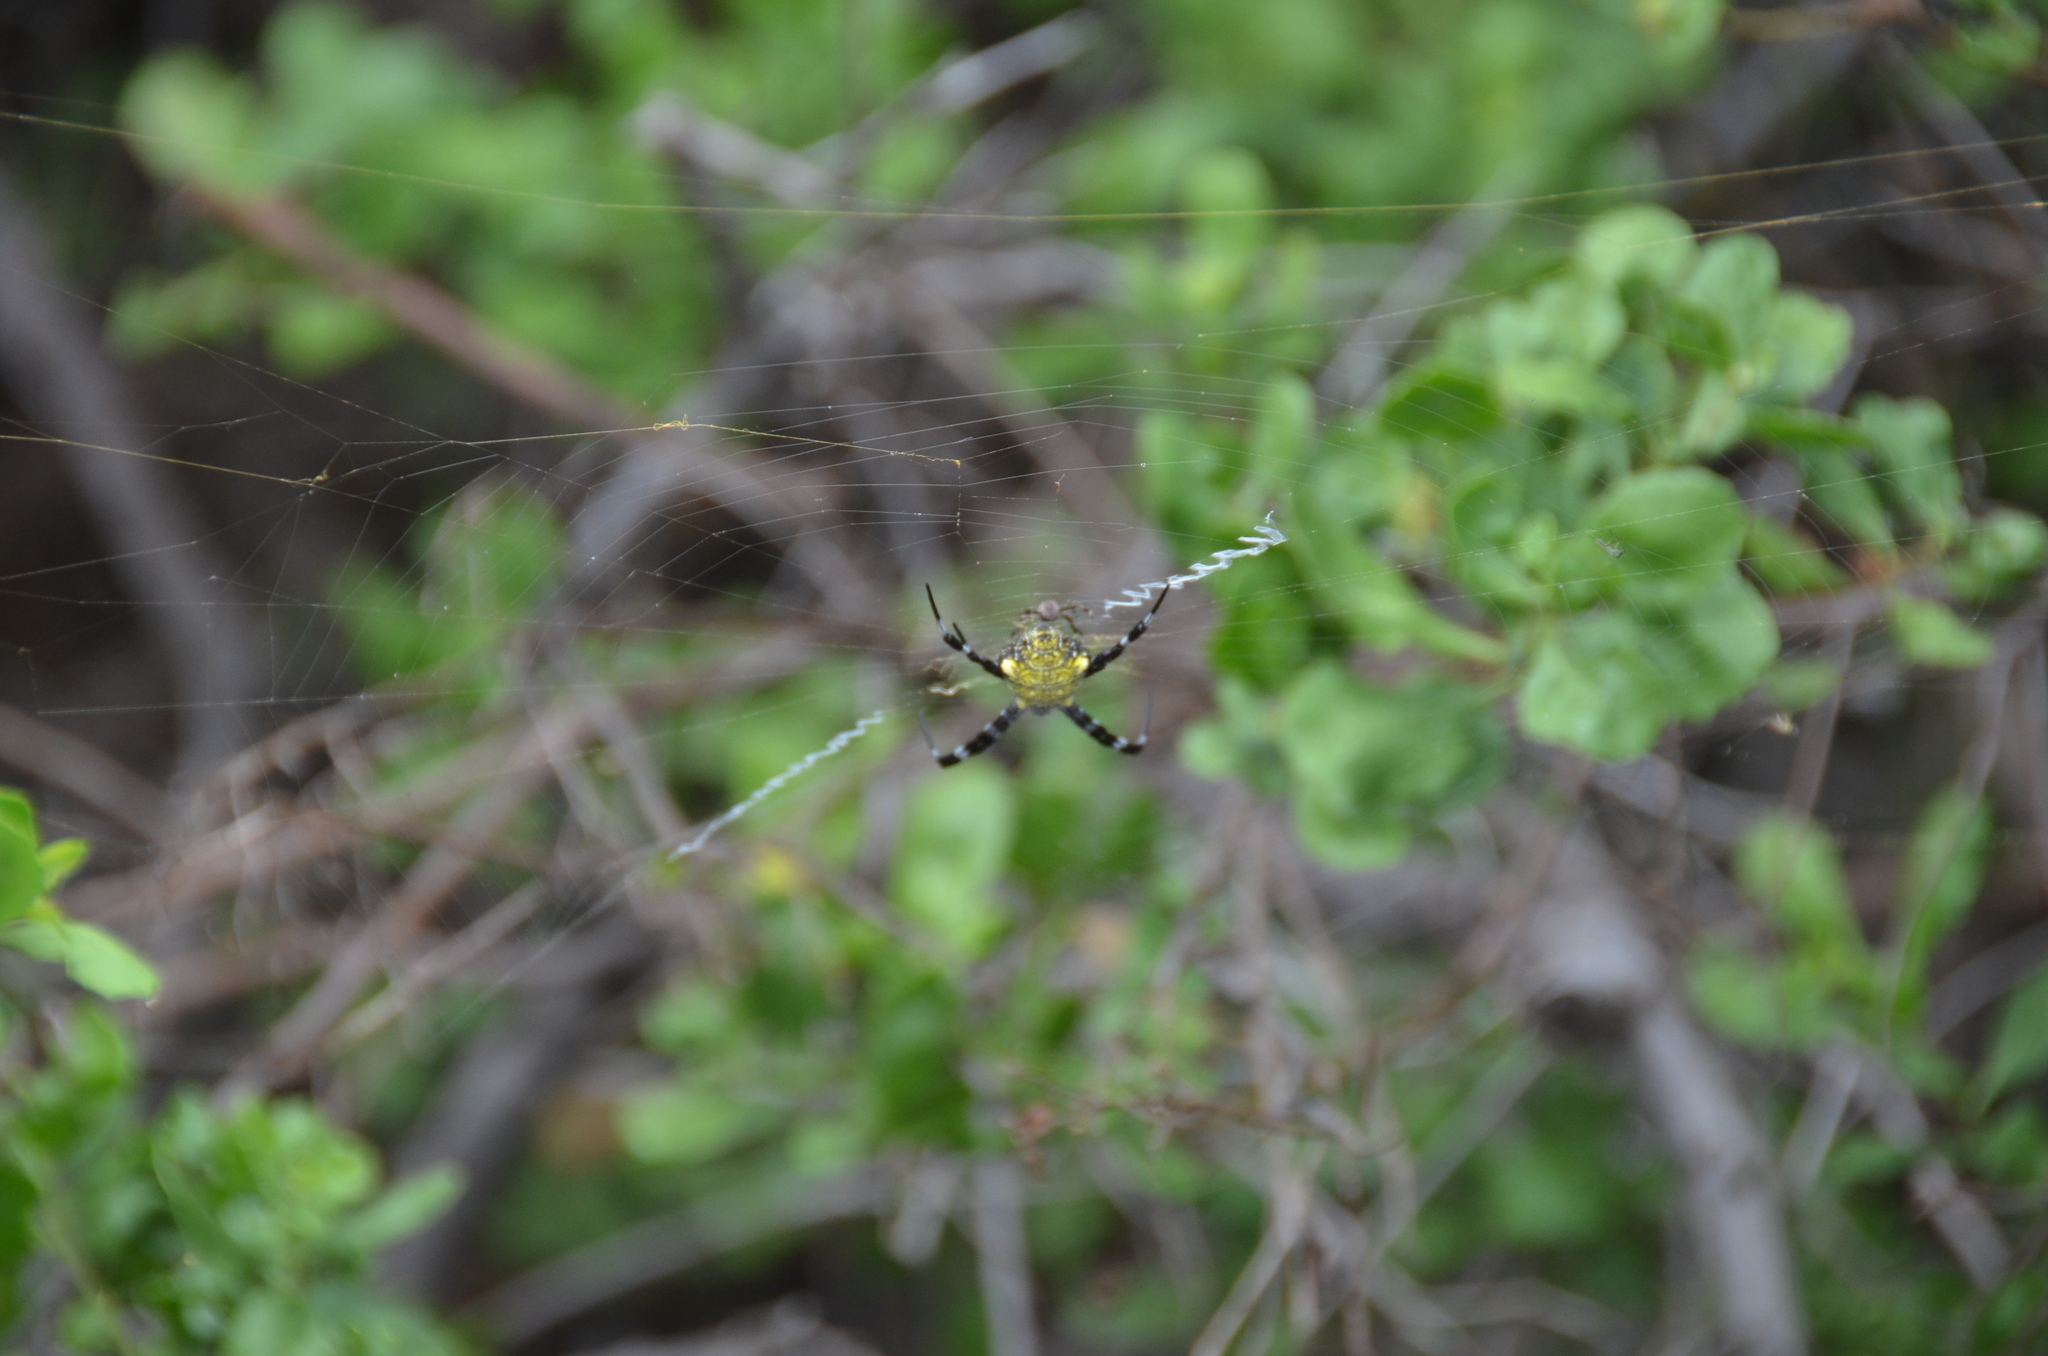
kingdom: Animalia
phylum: Arthropoda
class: Arachnida
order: Araneae
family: Araneidae
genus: Argiope
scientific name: Argiope appensa
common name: Garden spider
